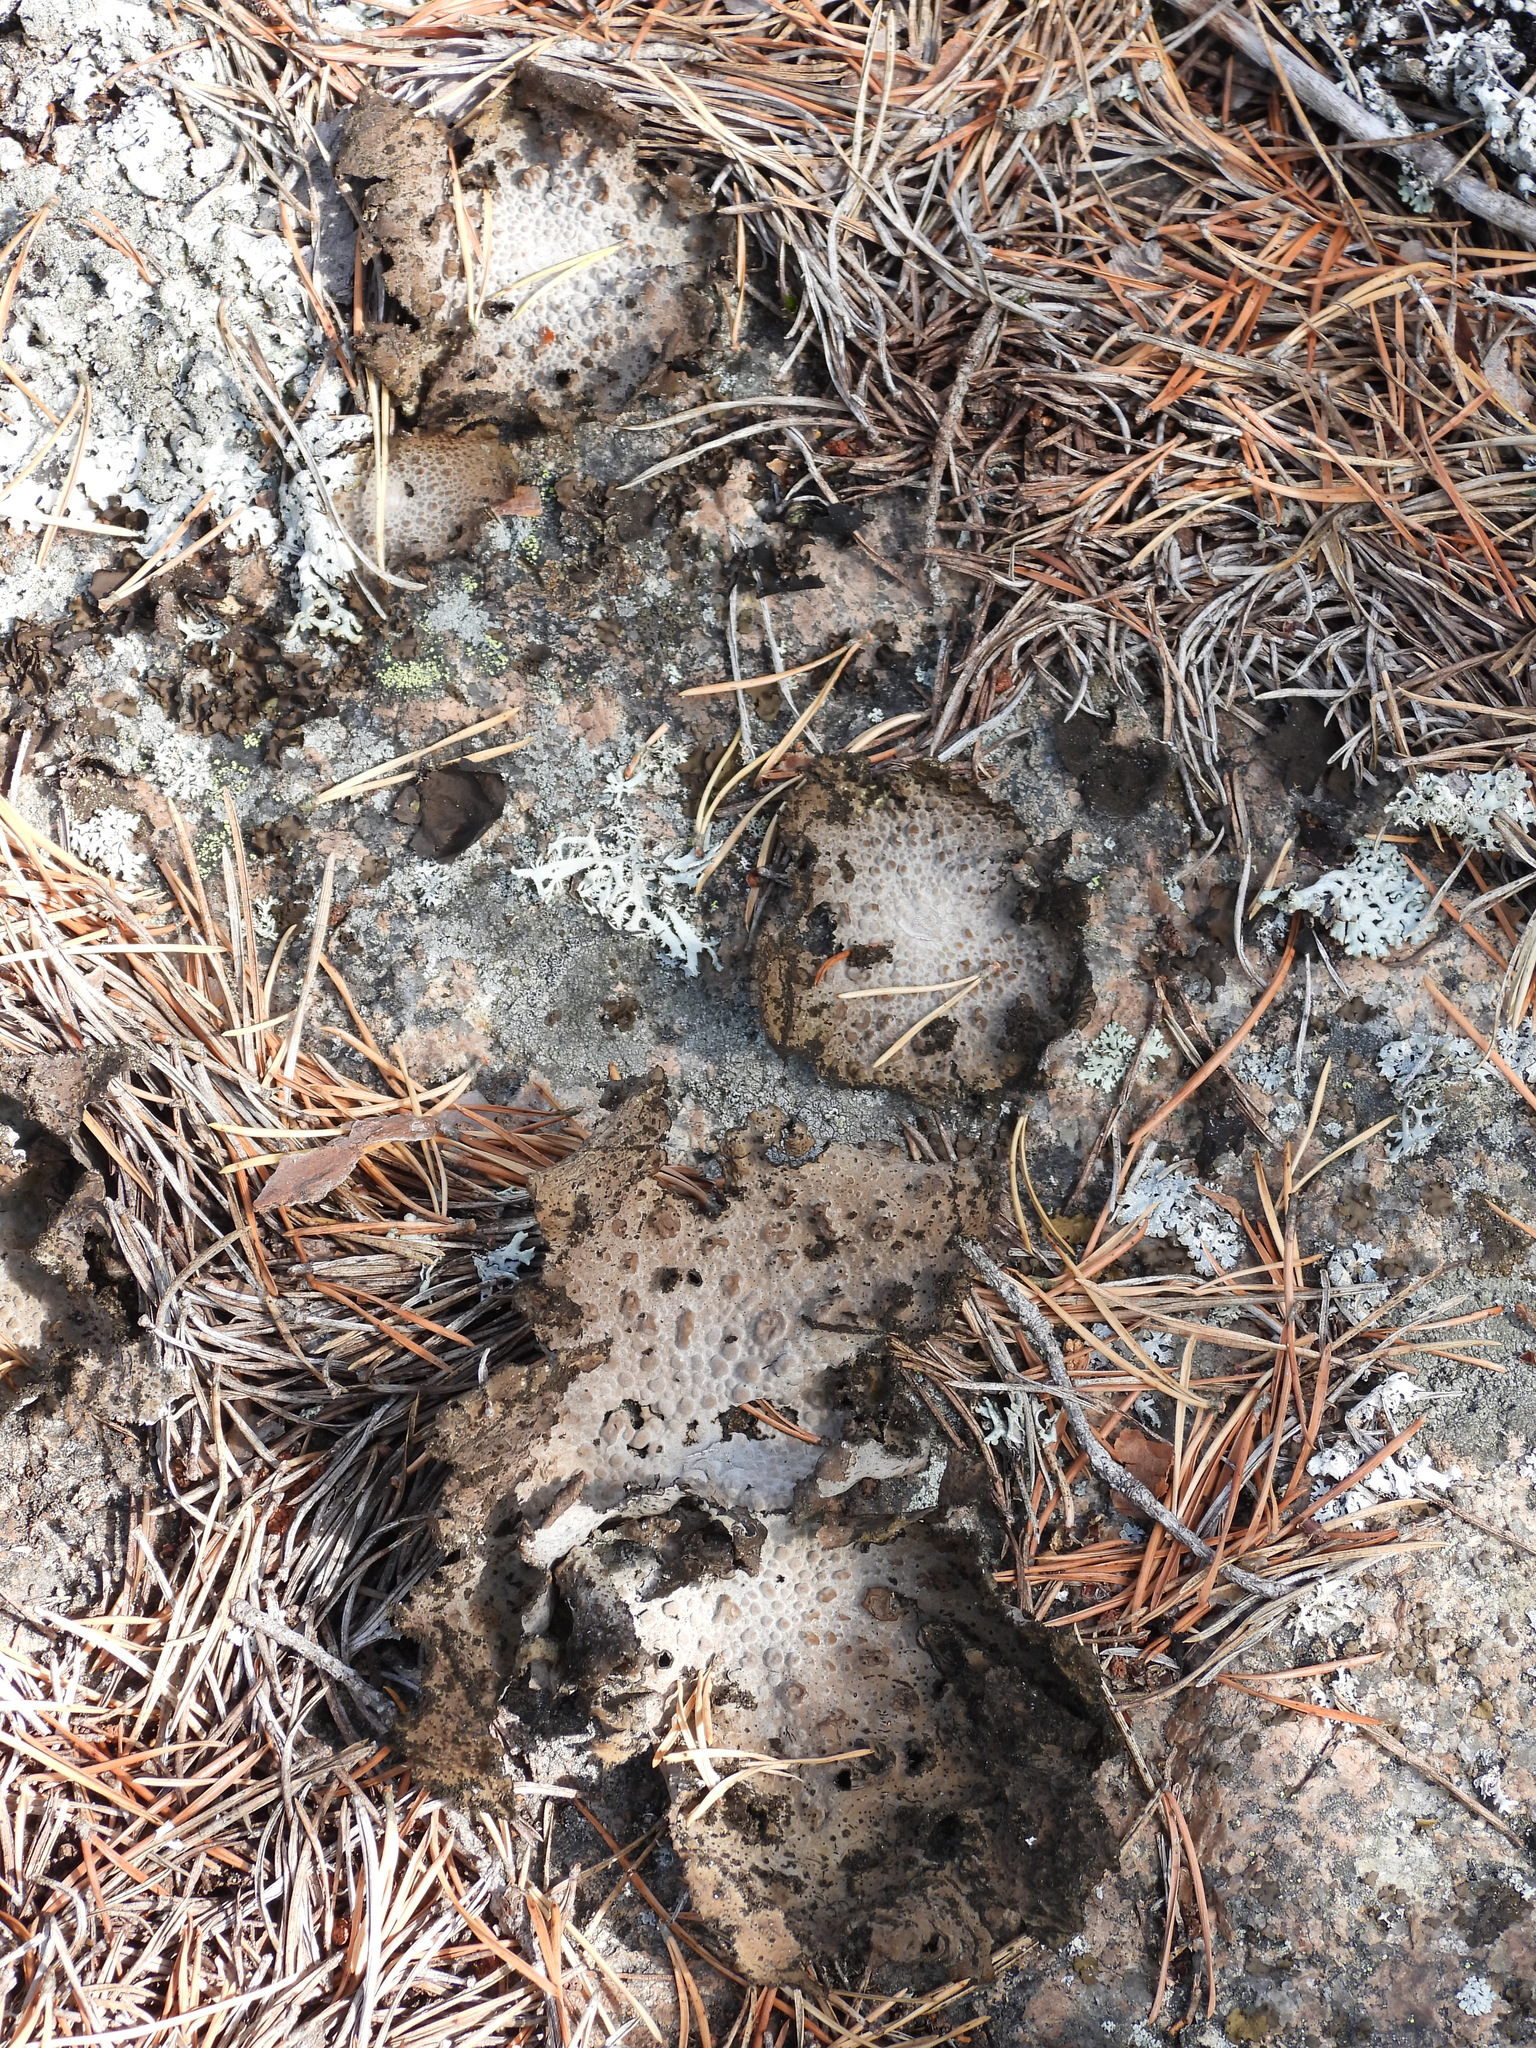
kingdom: Fungi
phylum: Ascomycota
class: Lecanoromycetes
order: Umbilicariales
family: Umbilicariaceae
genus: Lasallia
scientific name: Lasallia pustulata
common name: Blistered toadskin lichen
